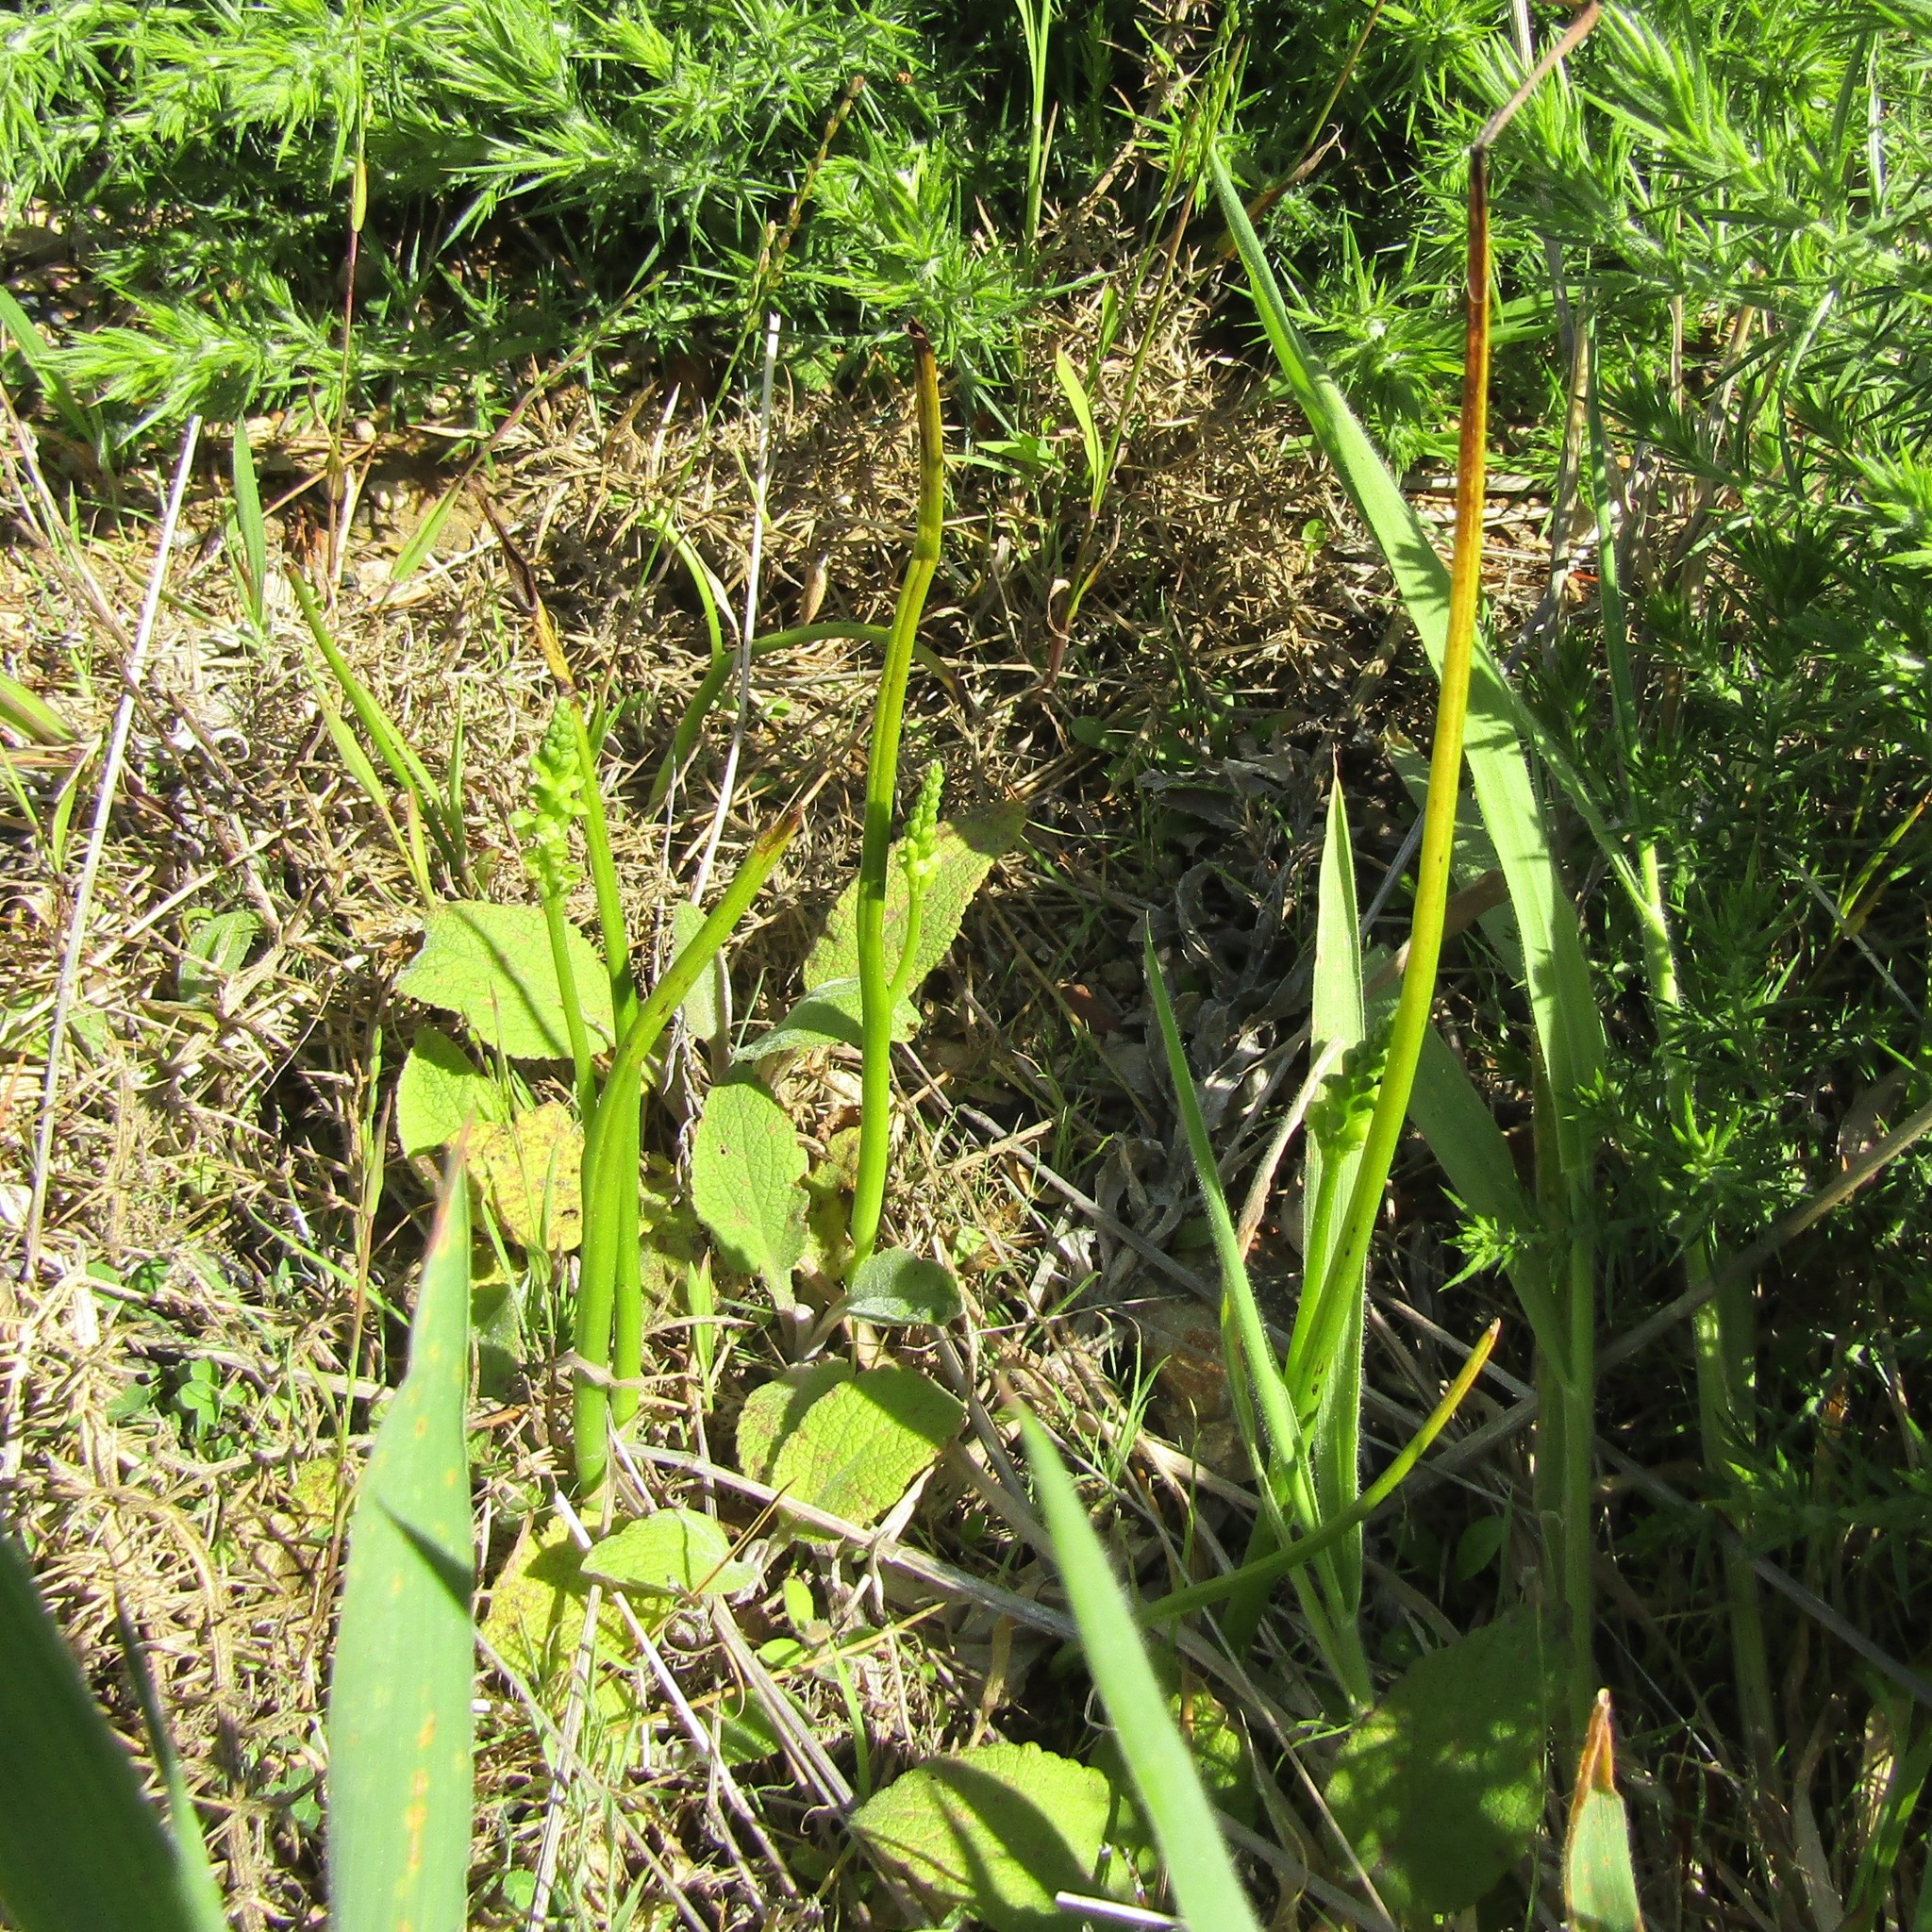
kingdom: Plantae
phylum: Tracheophyta
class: Liliopsida
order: Asparagales
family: Orchidaceae
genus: Microtis
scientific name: Microtis unifolia
